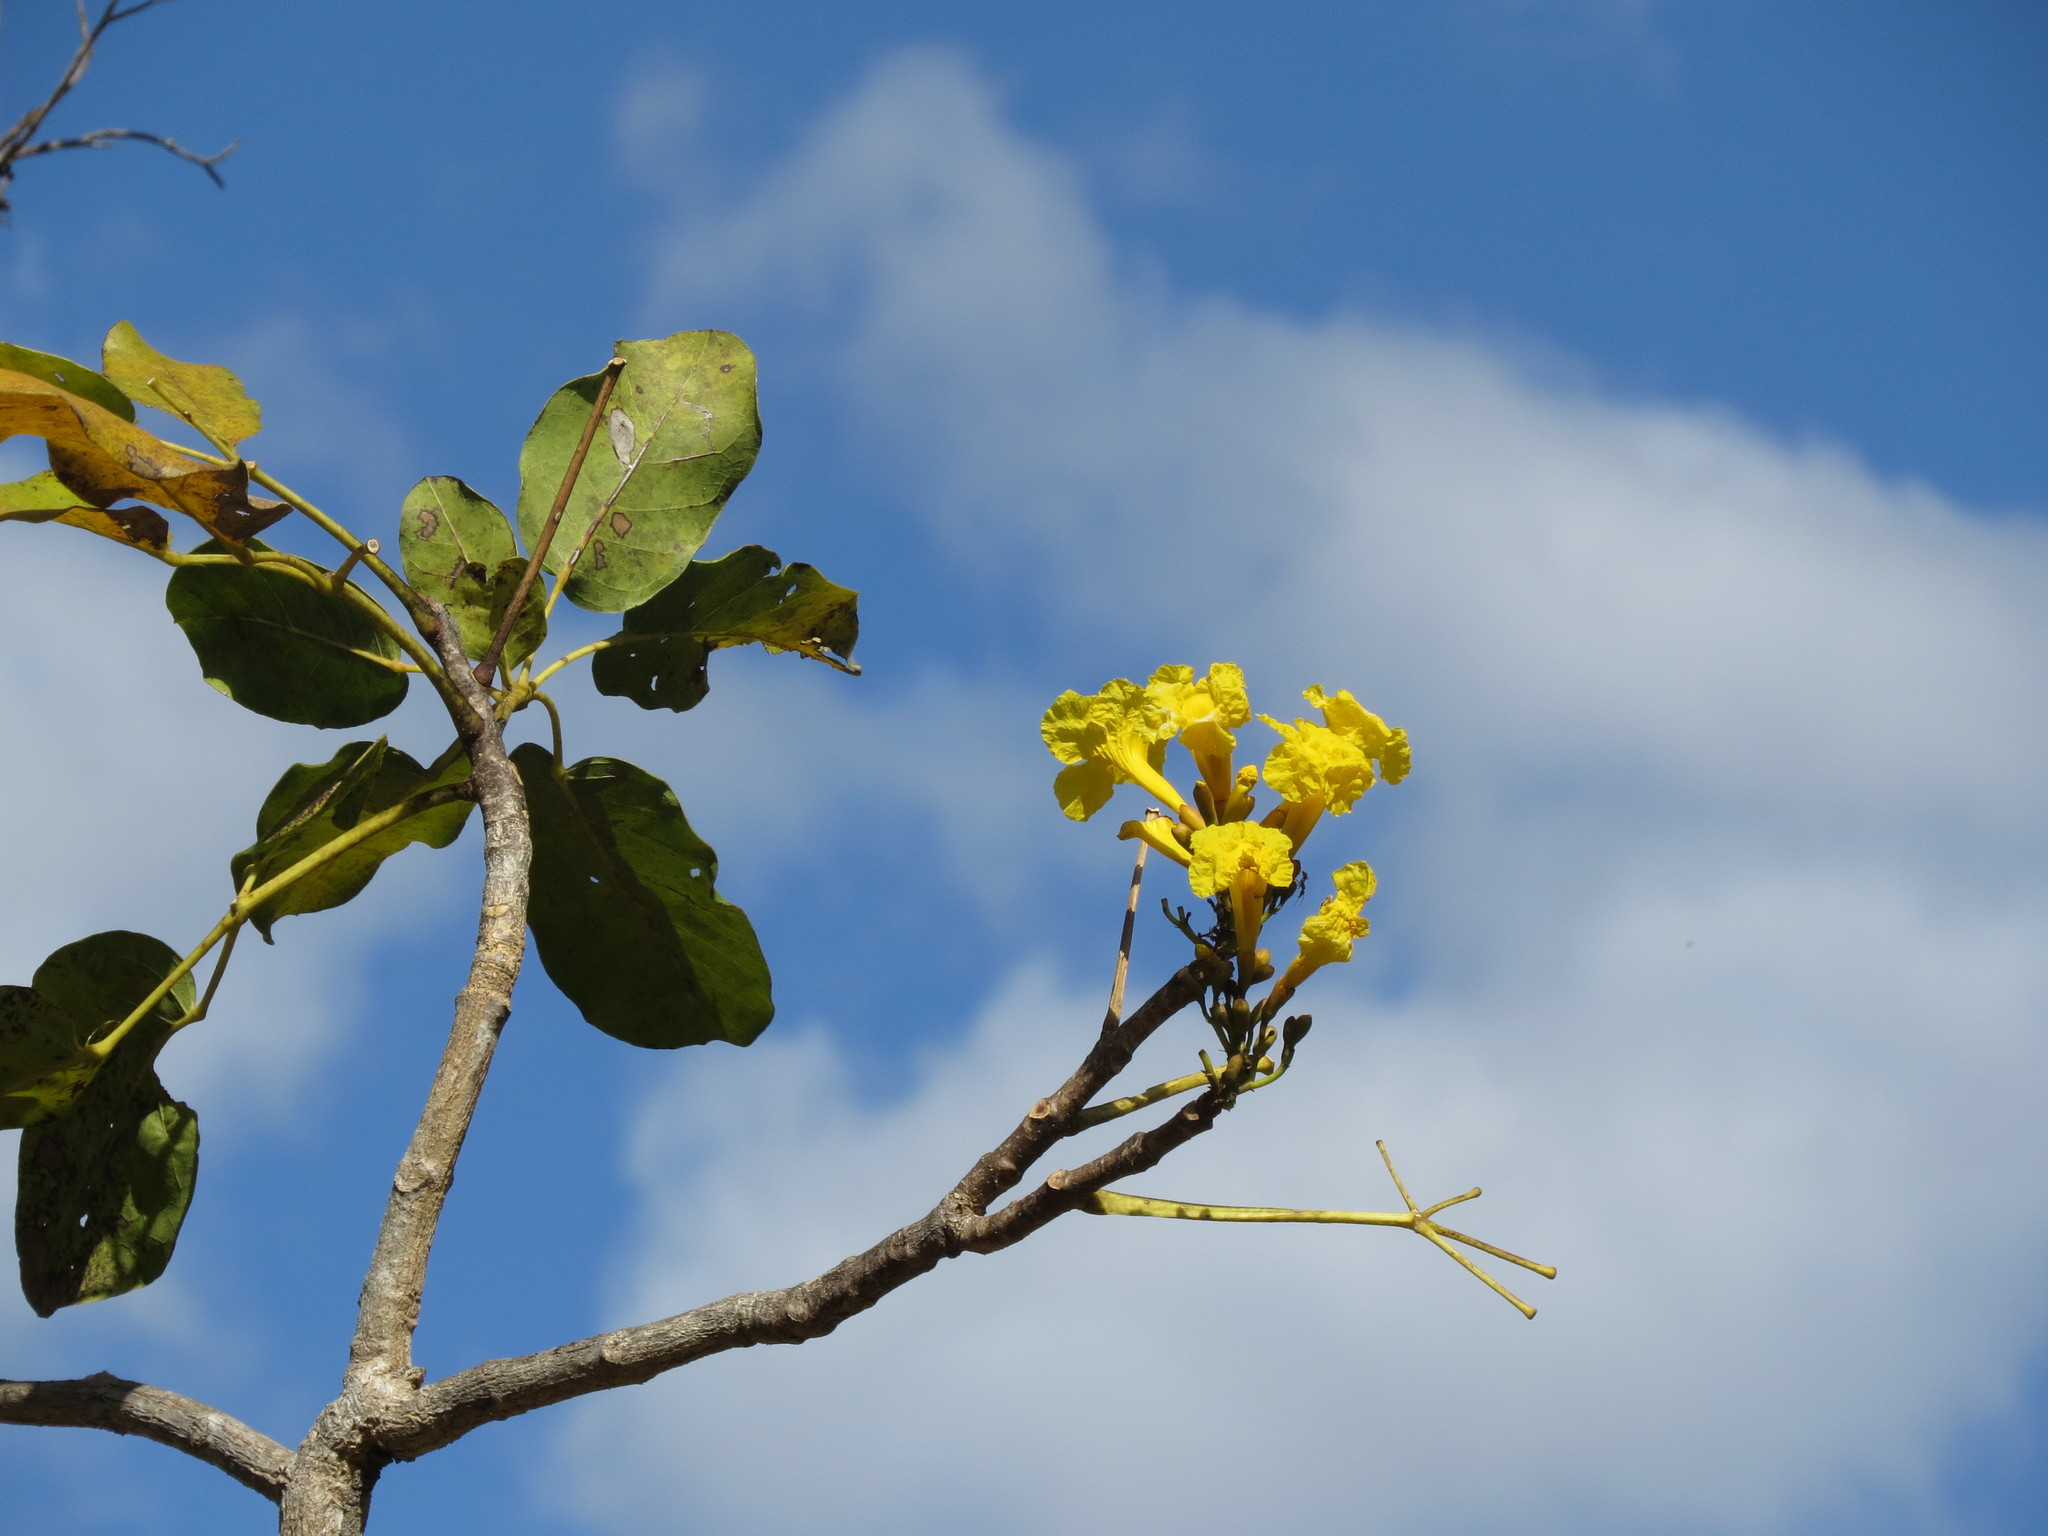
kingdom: Plantae
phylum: Tracheophyta
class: Magnoliopsida
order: Lamiales
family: Bignoniaceae
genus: Tabebuia
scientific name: Tabebuia aurea
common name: Caribbean trumpet-tree
